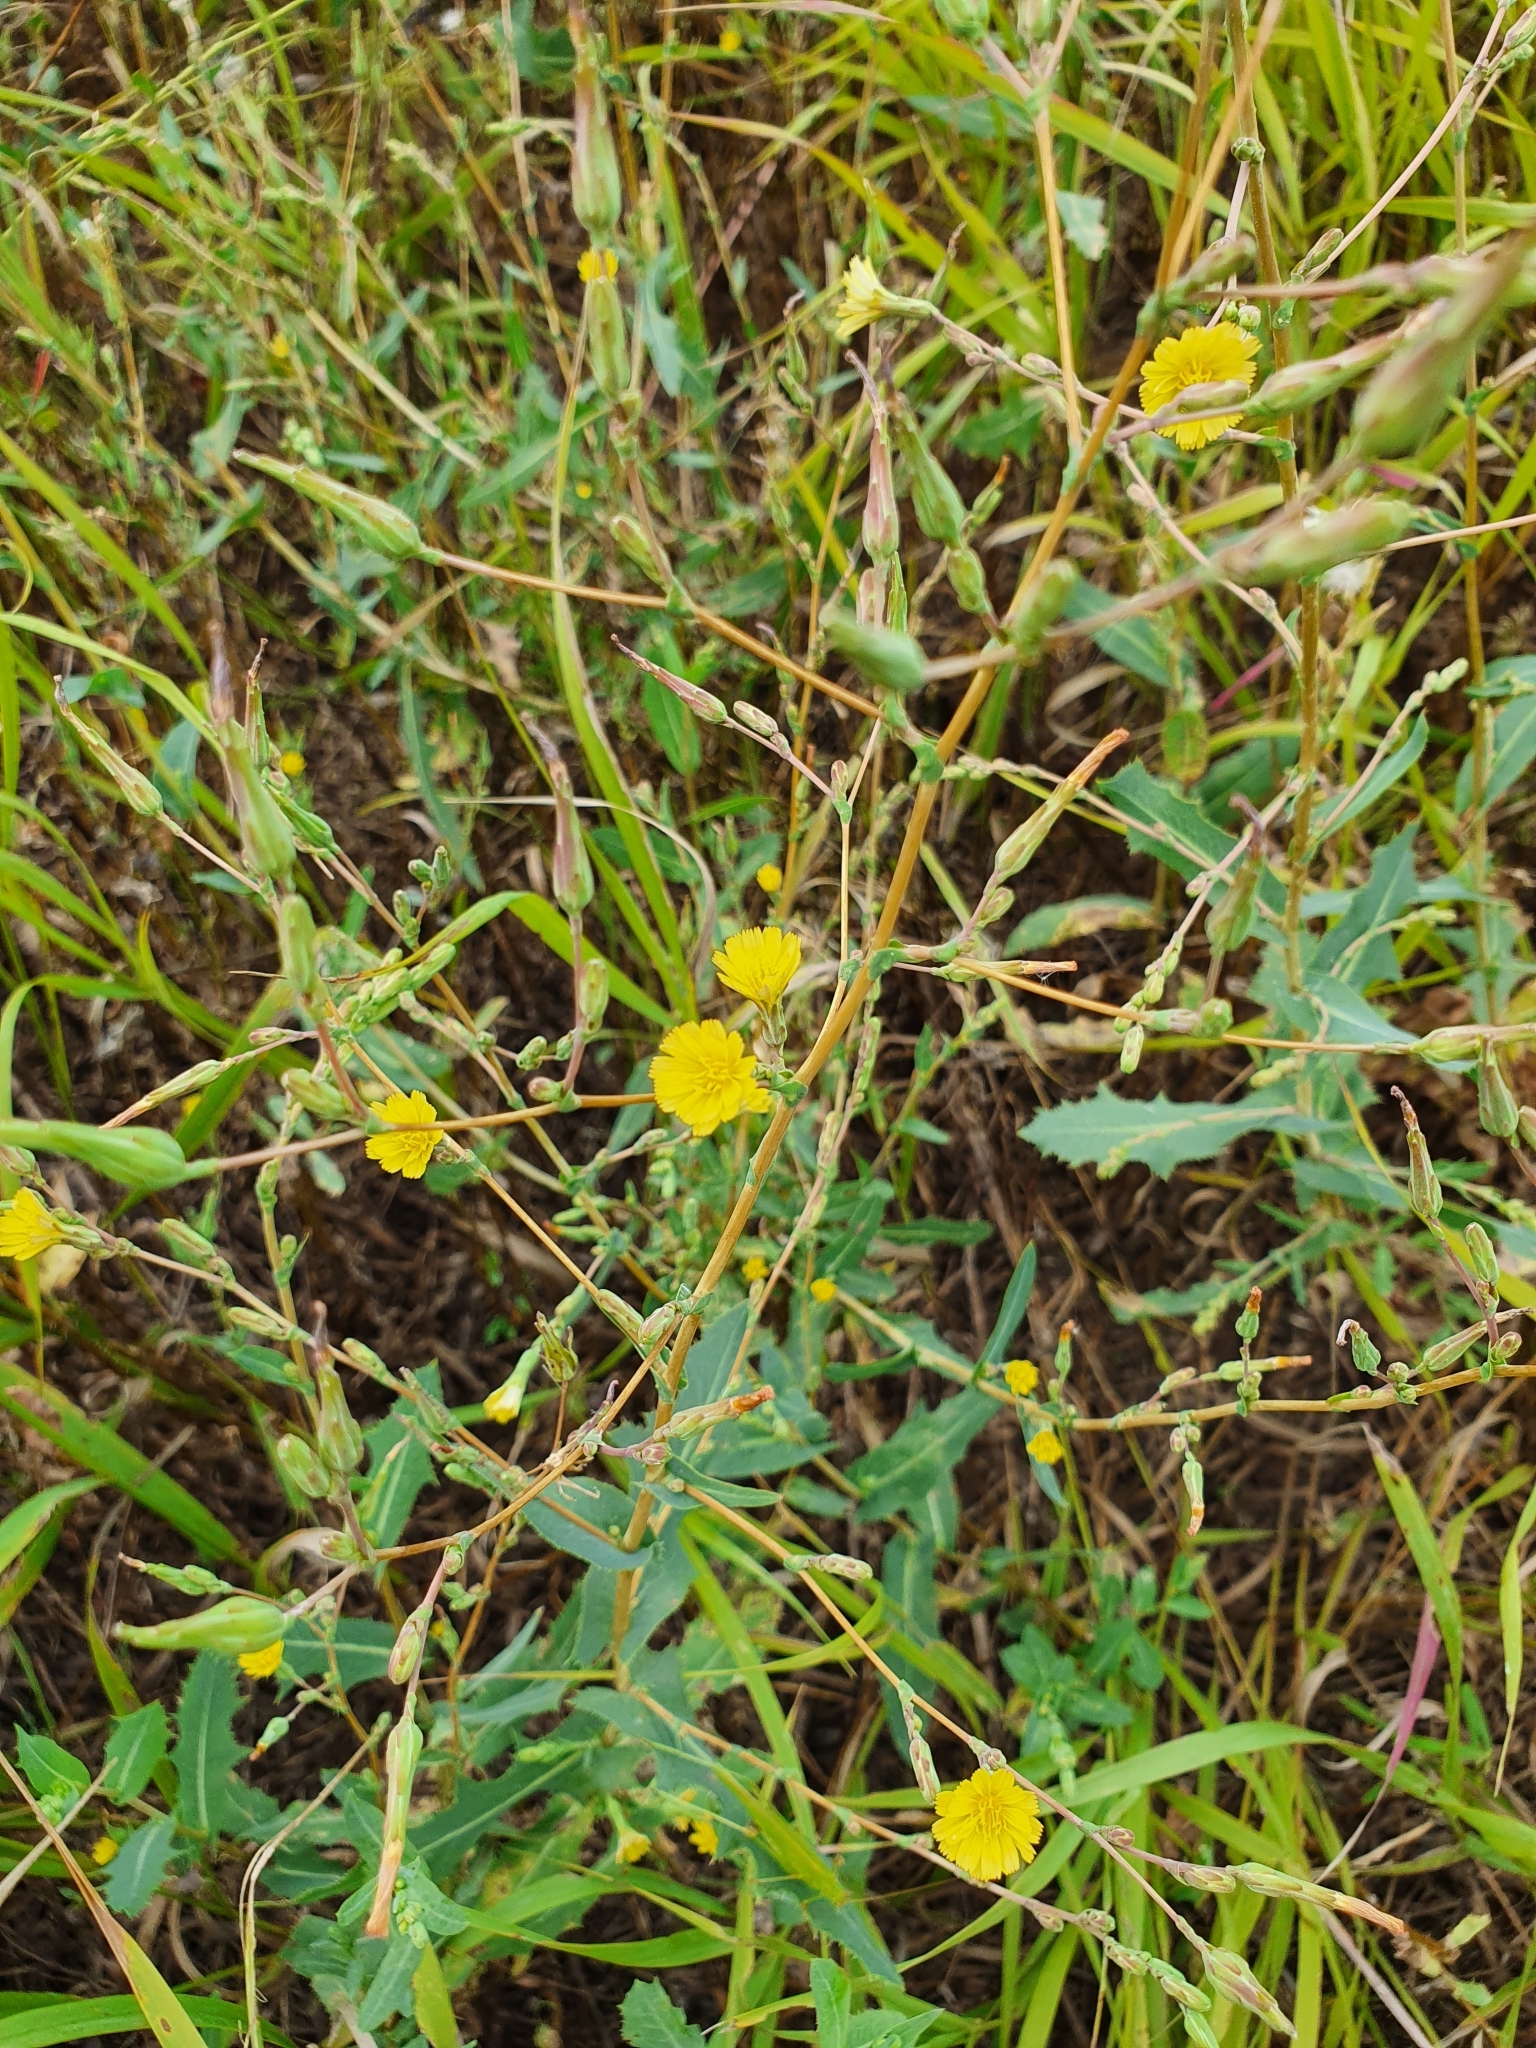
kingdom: Plantae
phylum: Tracheophyta
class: Magnoliopsida
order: Asterales
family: Asteraceae
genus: Lactuca
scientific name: Lactuca serriola
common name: Prickly lettuce
